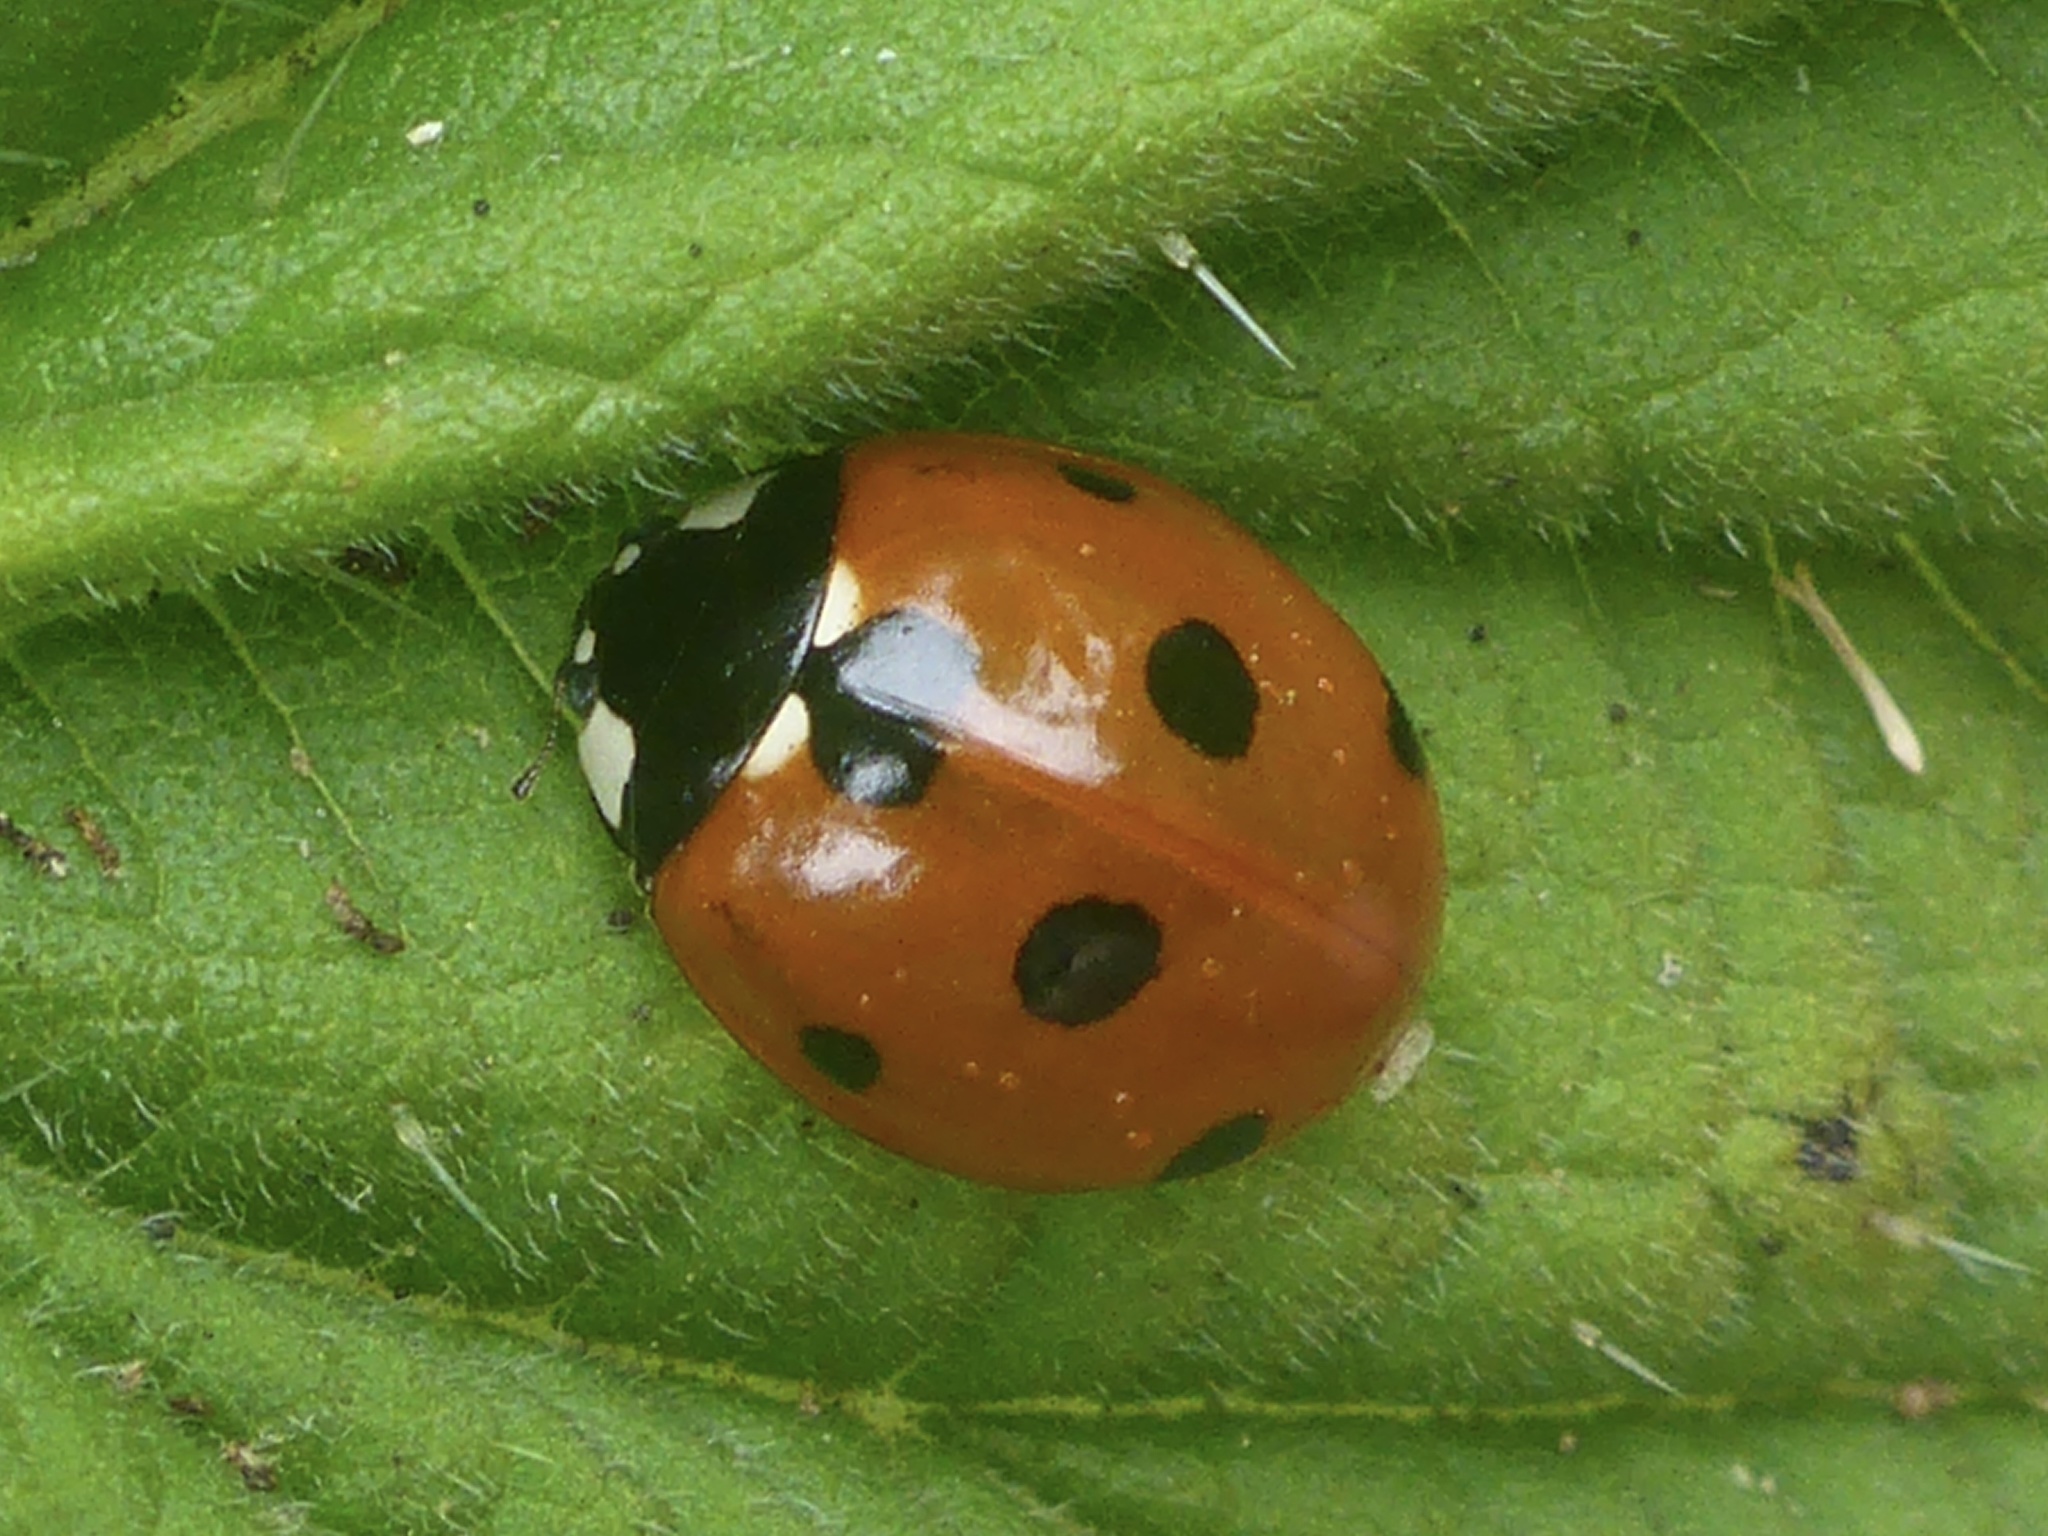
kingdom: Animalia
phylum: Arthropoda
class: Insecta
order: Coleoptera
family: Coccinellidae
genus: Coccinella
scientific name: Coccinella septempunctata
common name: Sevenspotted lady beetle
